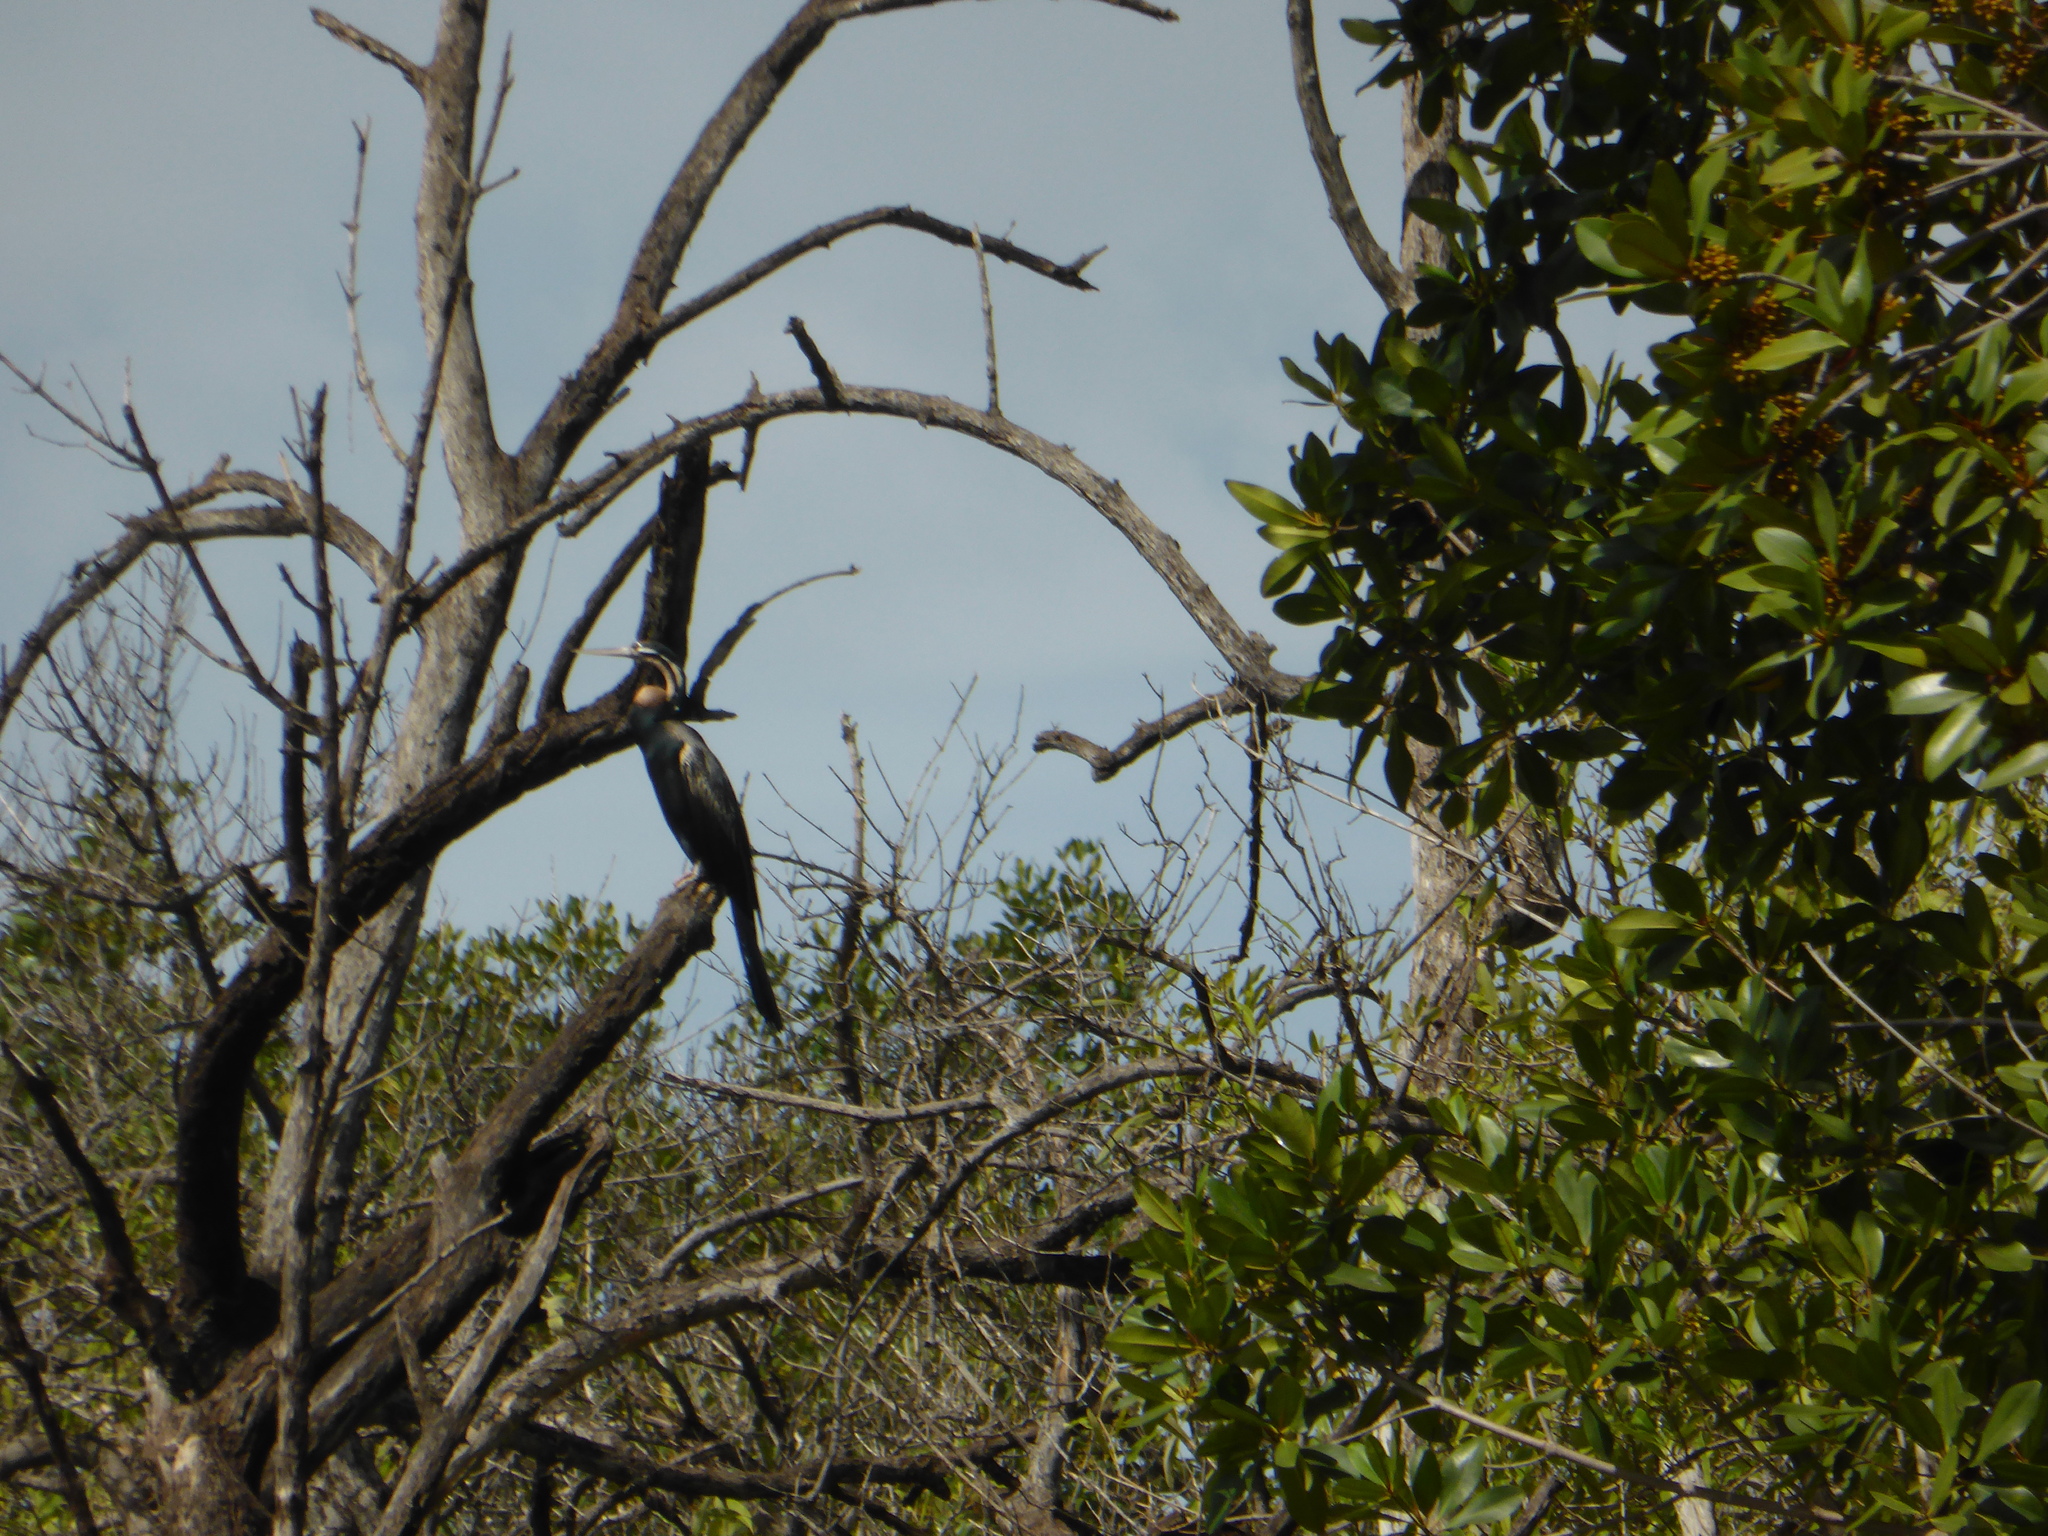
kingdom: Animalia
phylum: Chordata
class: Aves
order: Suliformes
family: Anhingidae
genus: Anhinga
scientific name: Anhinga rufa
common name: African darter
